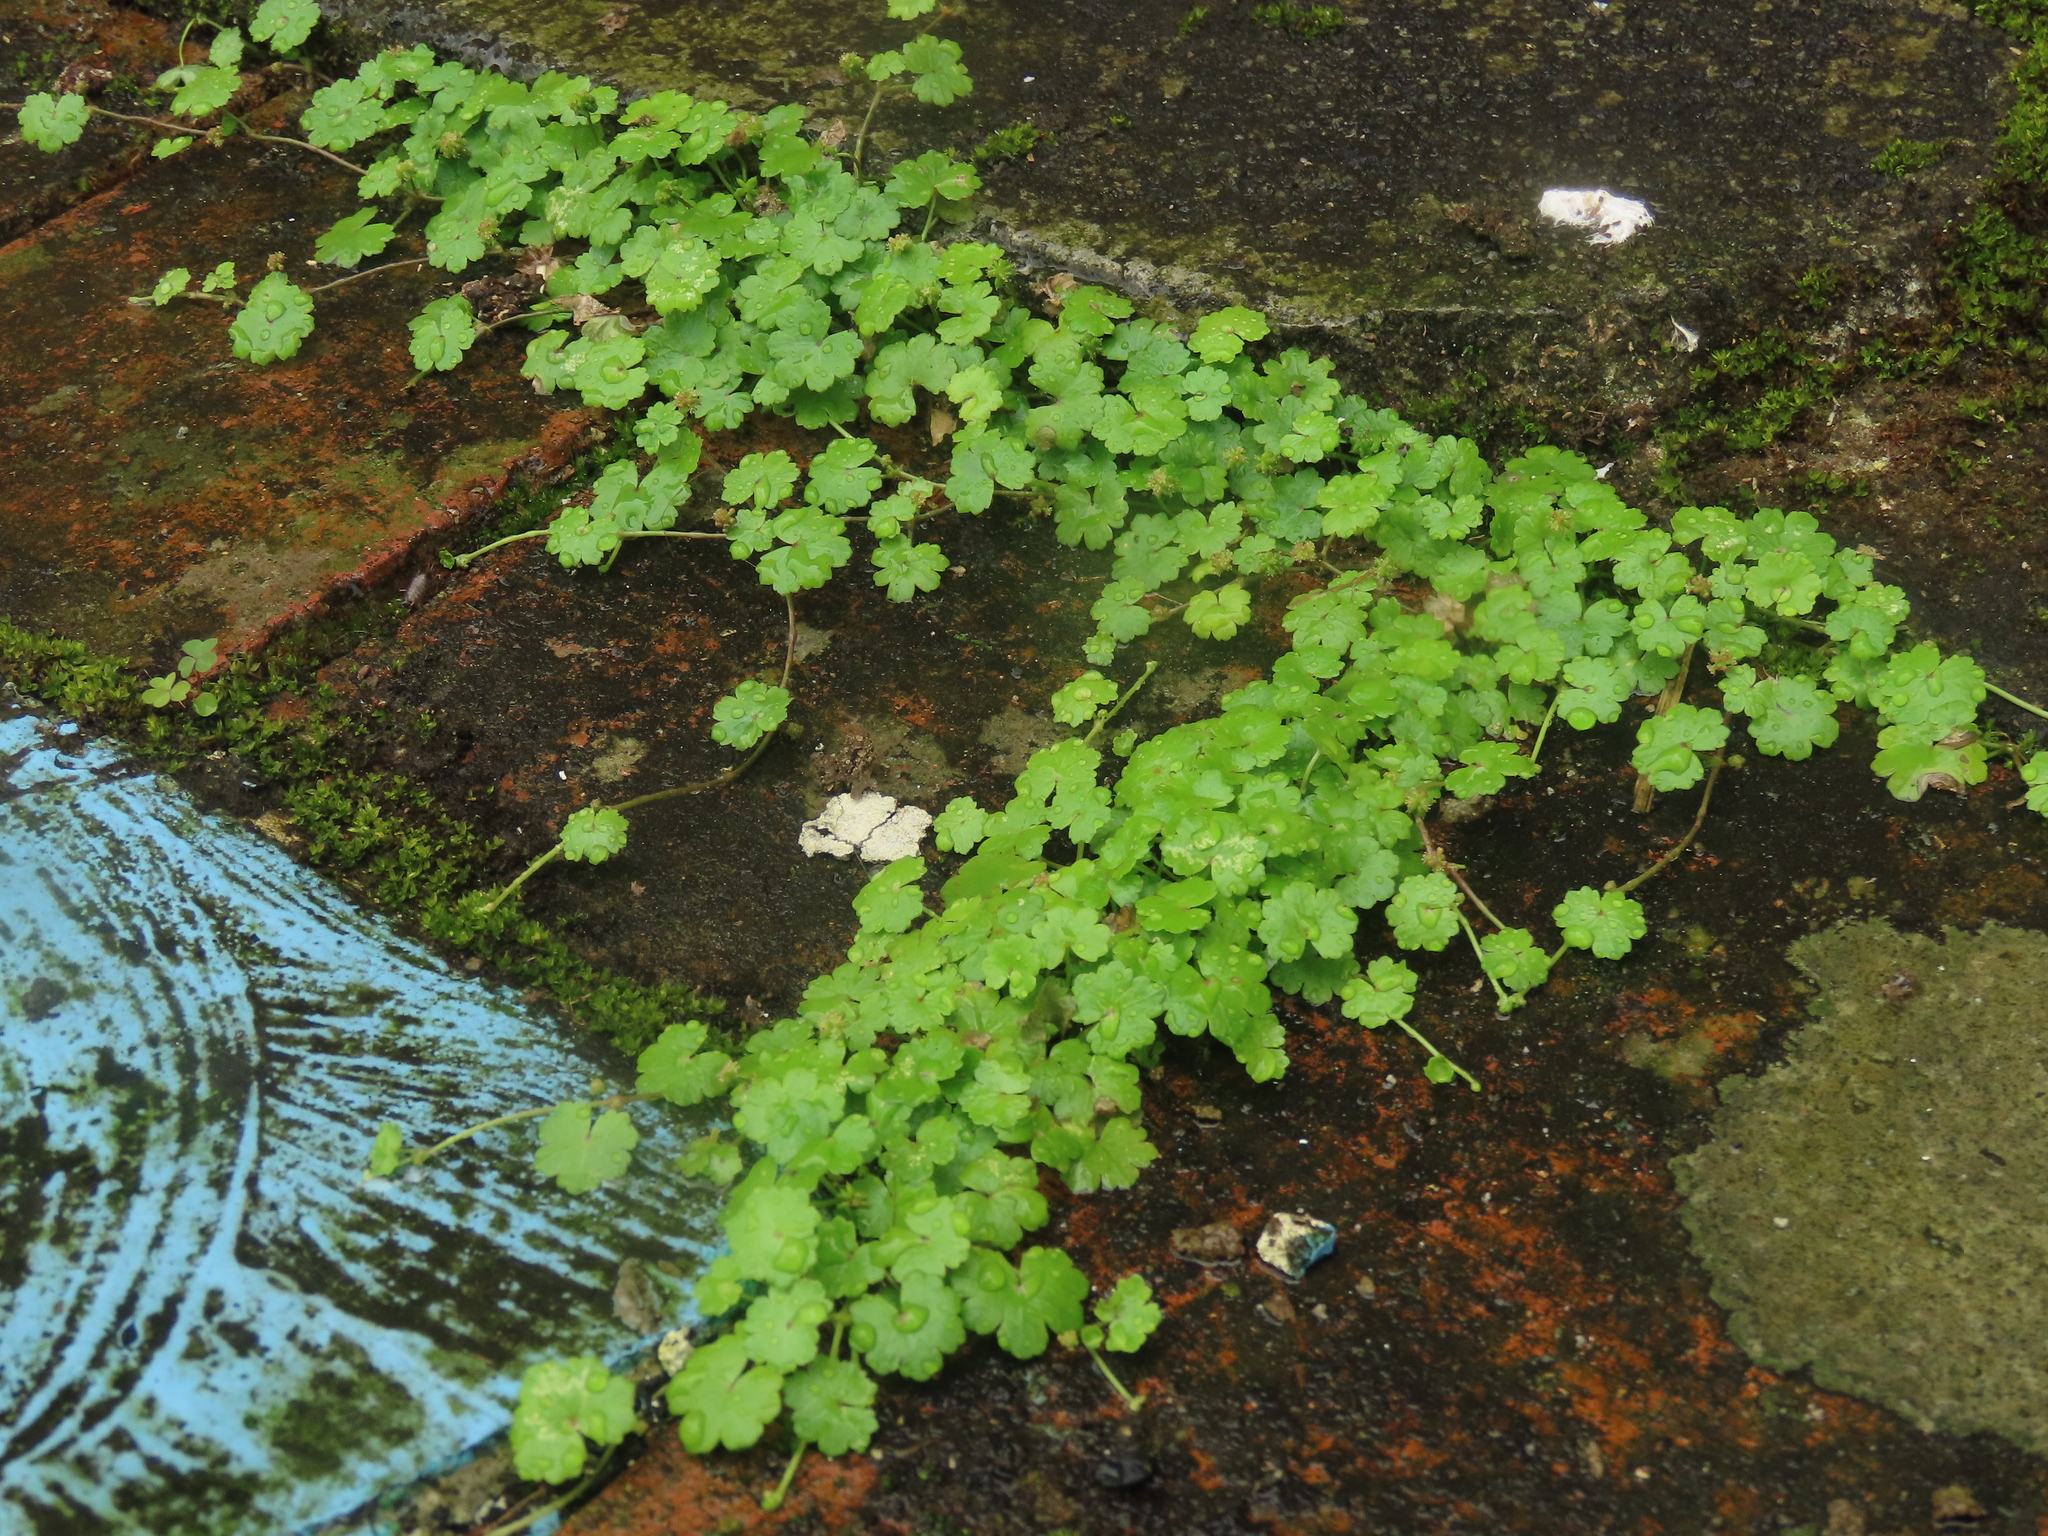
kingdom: Plantae
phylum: Tracheophyta
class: Magnoliopsida
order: Apiales
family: Araliaceae
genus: Hydrocotyle
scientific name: Hydrocotyle sibthorpioides
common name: Lawn marshpennywort
